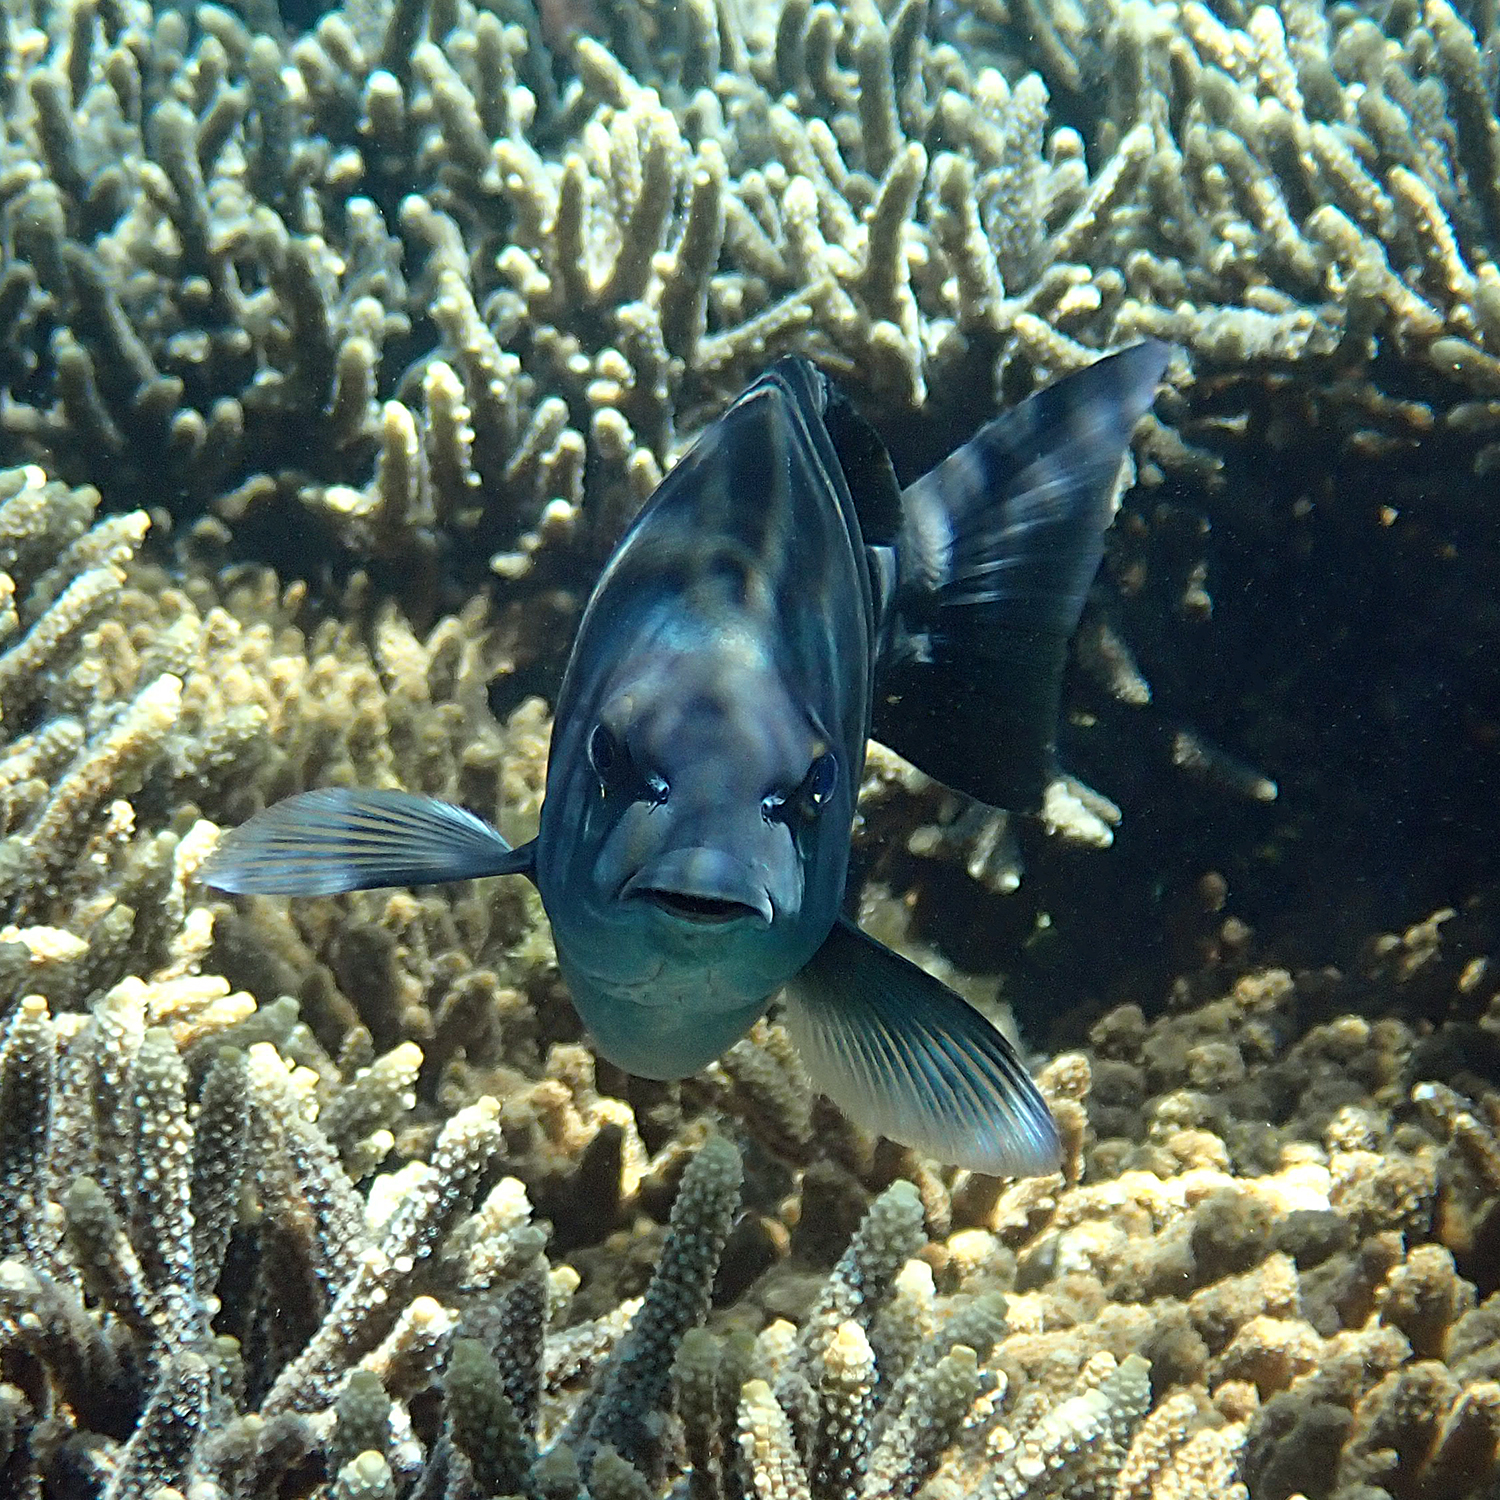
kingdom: Animalia
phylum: Chordata
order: Perciformes
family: Kyphosidae
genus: Girella
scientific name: Girella cyanea
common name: Bluefish
